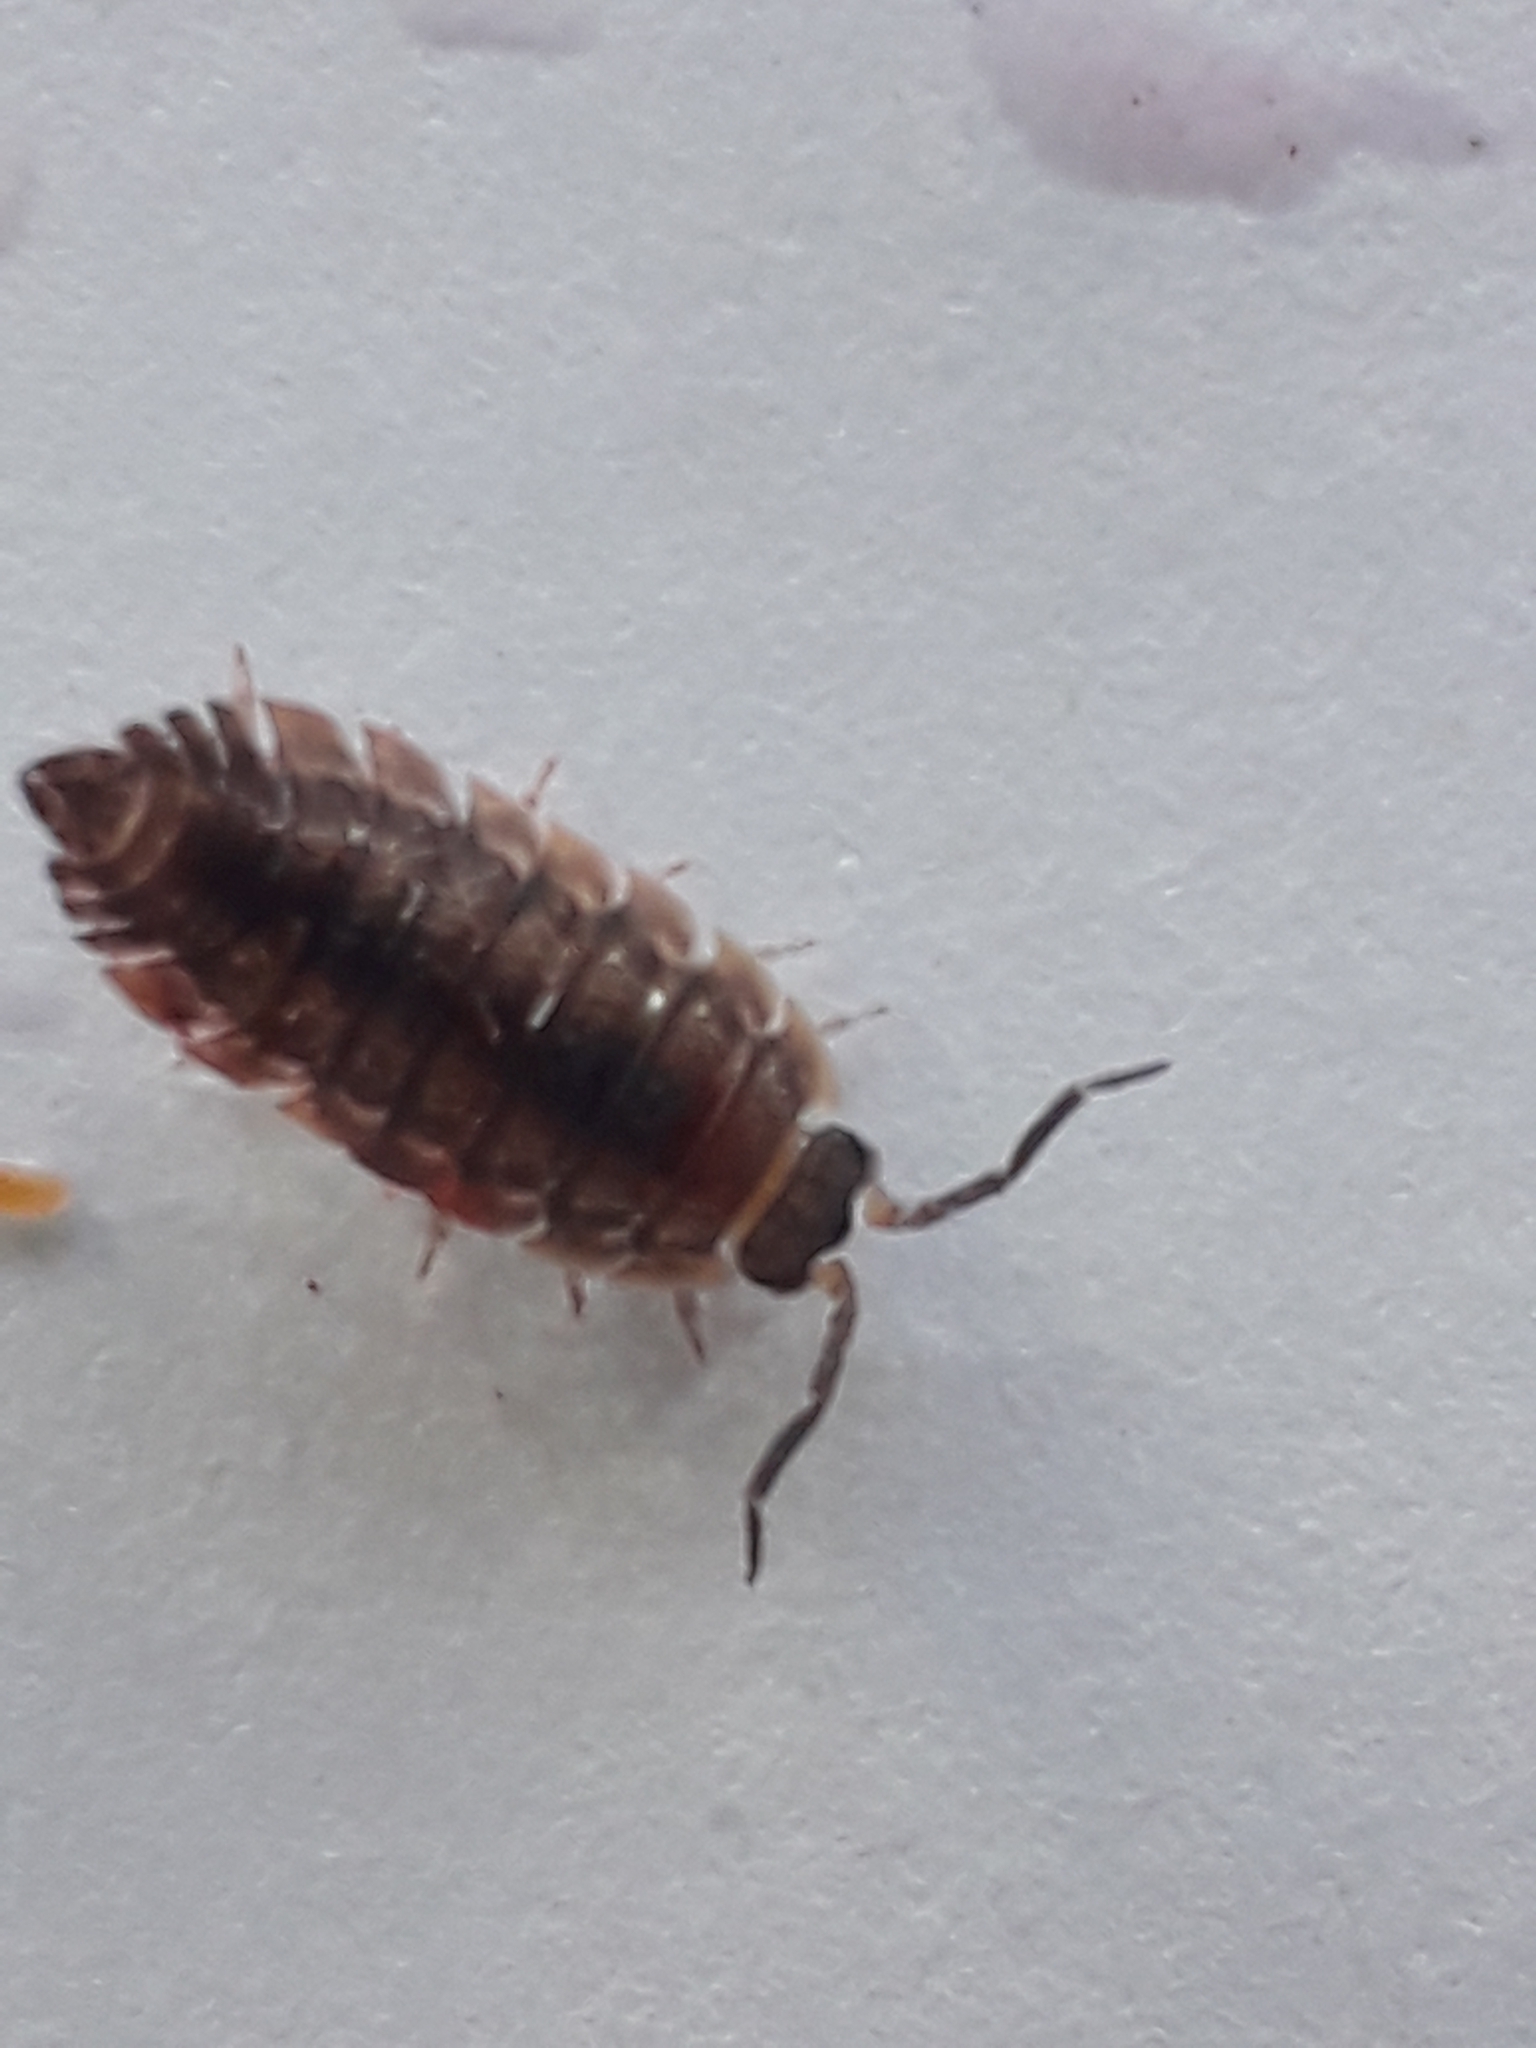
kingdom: Animalia
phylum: Arthropoda
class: Malacostraca
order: Isopoda
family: Porcellionidae
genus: Porcellio
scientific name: Porcellio scaber
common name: Common rough woodlouse
